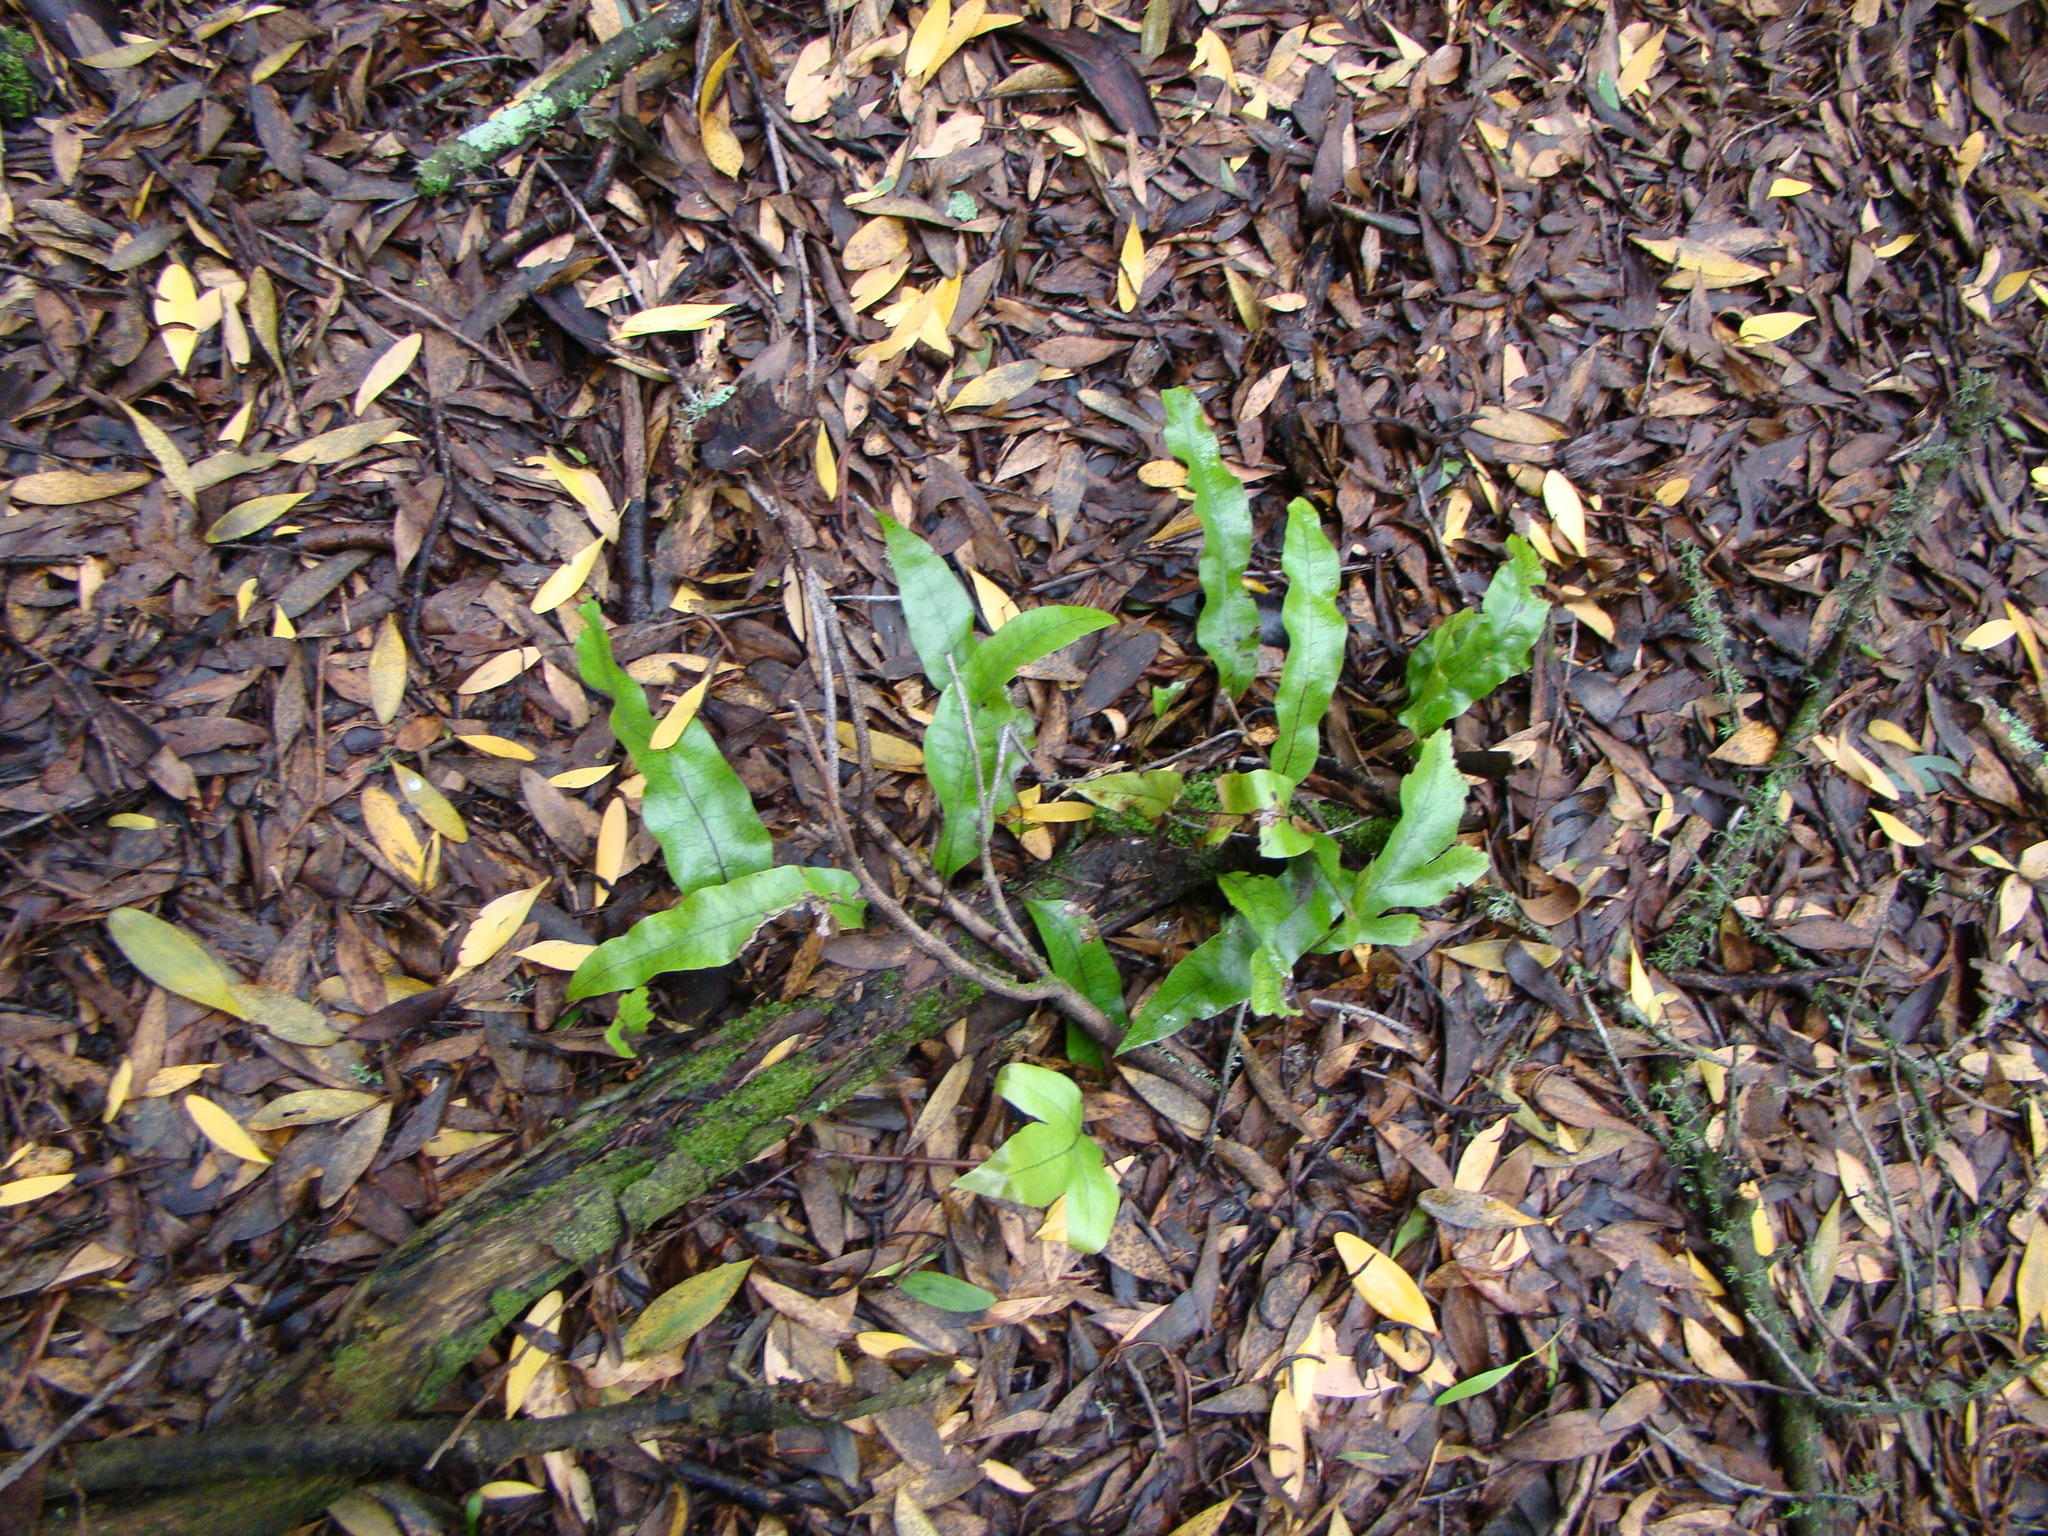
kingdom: Plantae
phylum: Tracheophyta
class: Polypodiopsida
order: Polypodiales
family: Polypodiaceae
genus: Lecanopteris
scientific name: Lecanopteris pustulata
